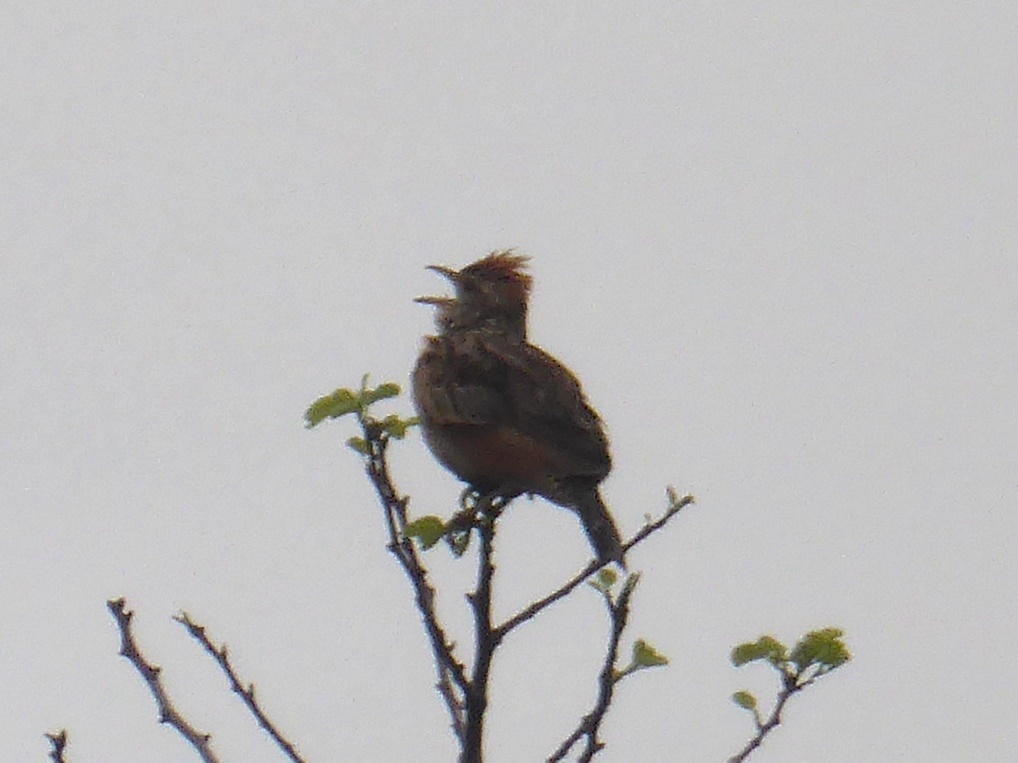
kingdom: Animalia
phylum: Chordata
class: Aves
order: Passeriformes
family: Alaudidae
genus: Mirafra
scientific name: Mirafra africana
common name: Rufous-naped lark
